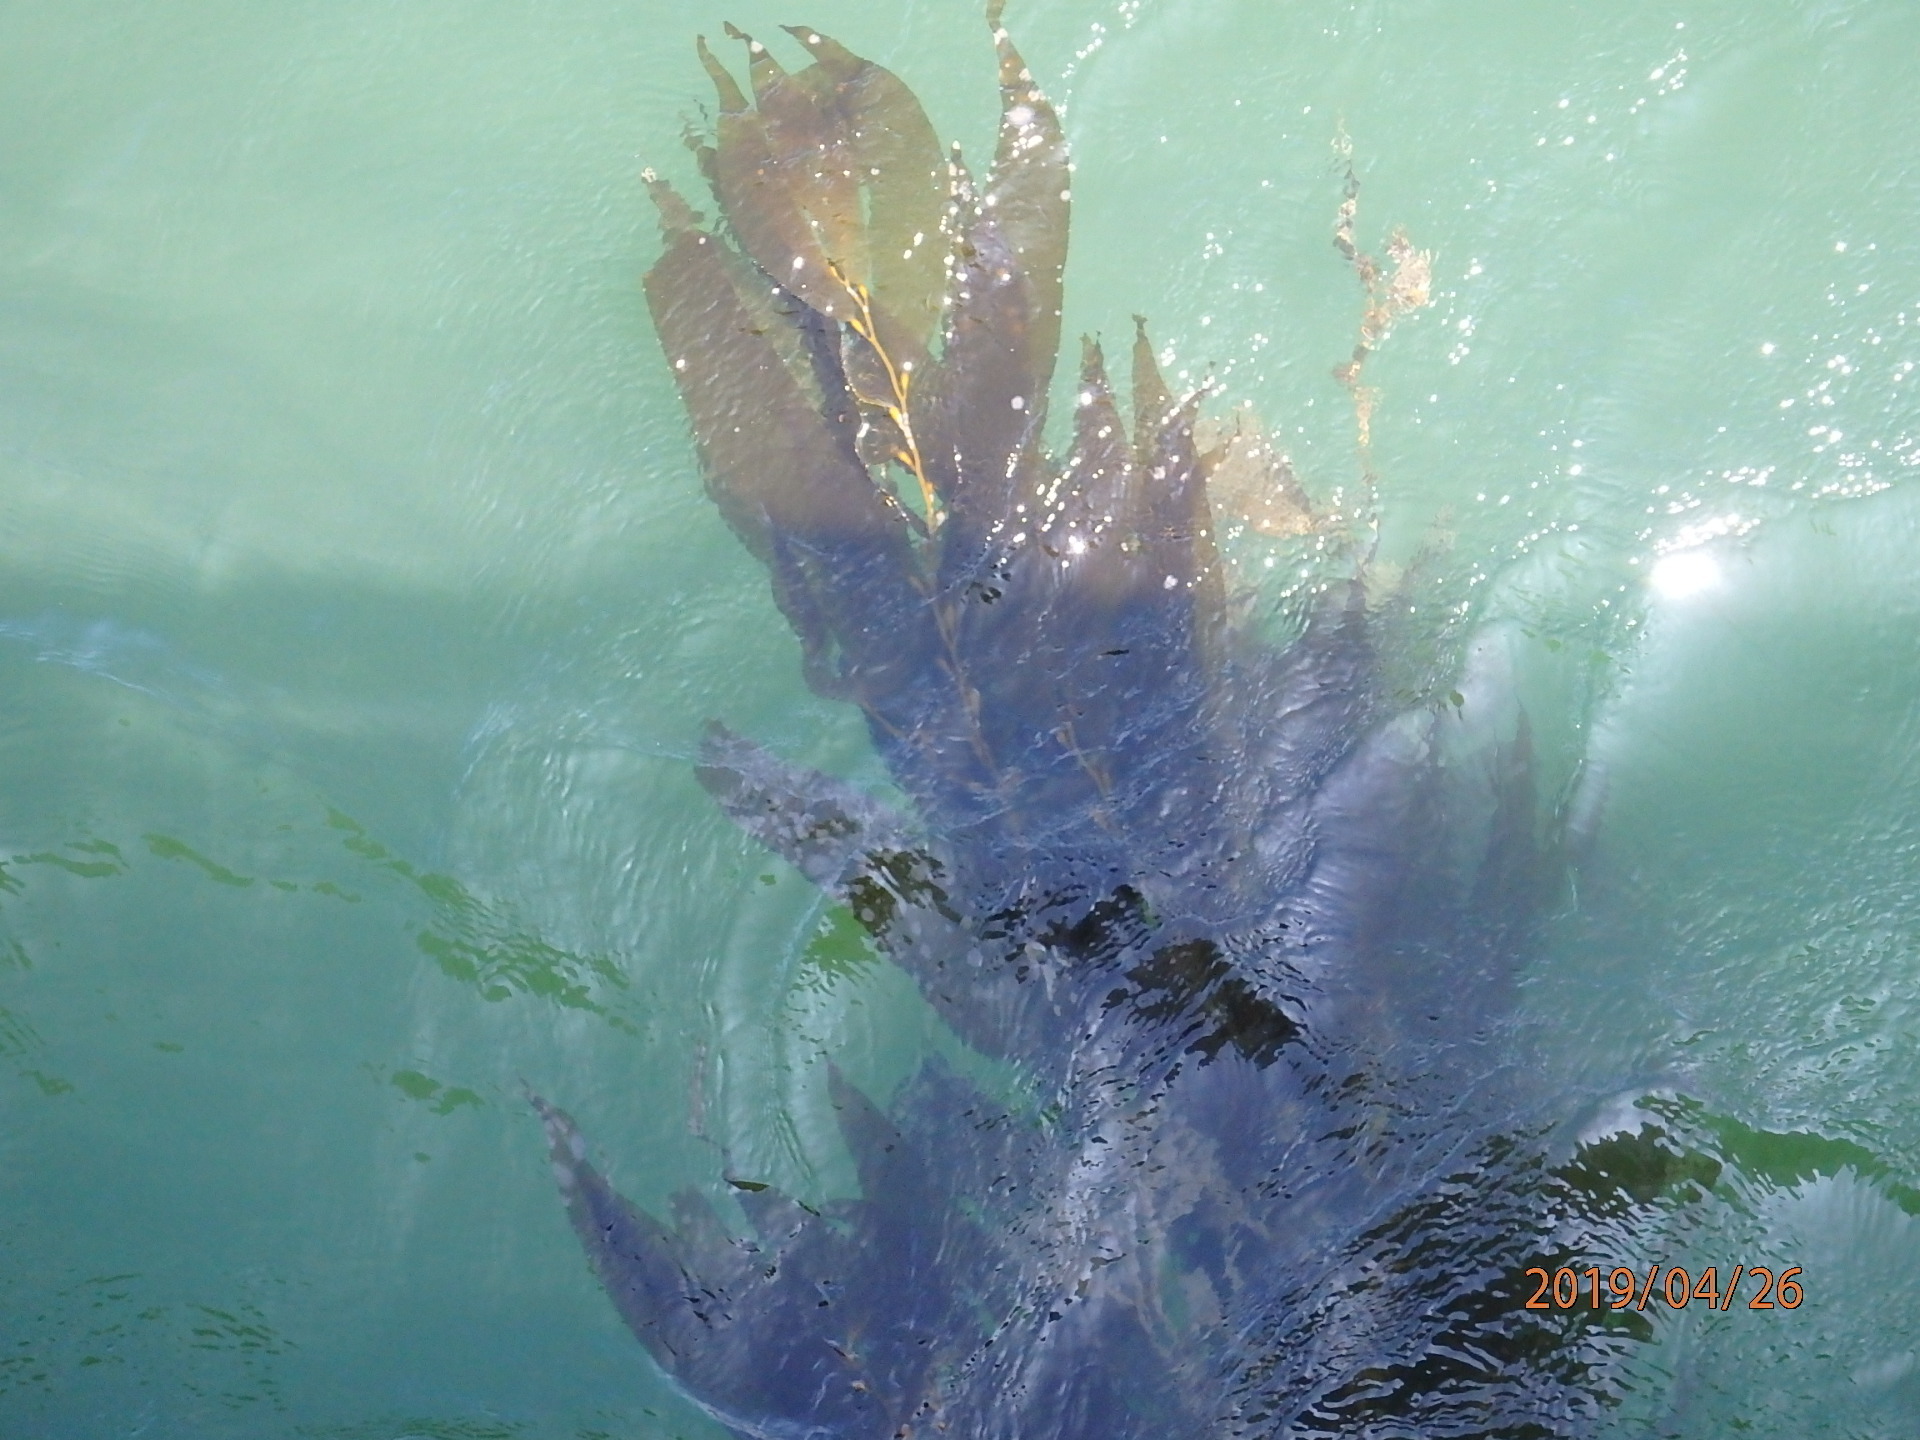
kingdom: Chromista
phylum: Ochrophyta
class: Phaeophyceae
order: Laminariales
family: Laminariaceae
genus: Macrocystis
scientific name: Macrocystis pyrifera
